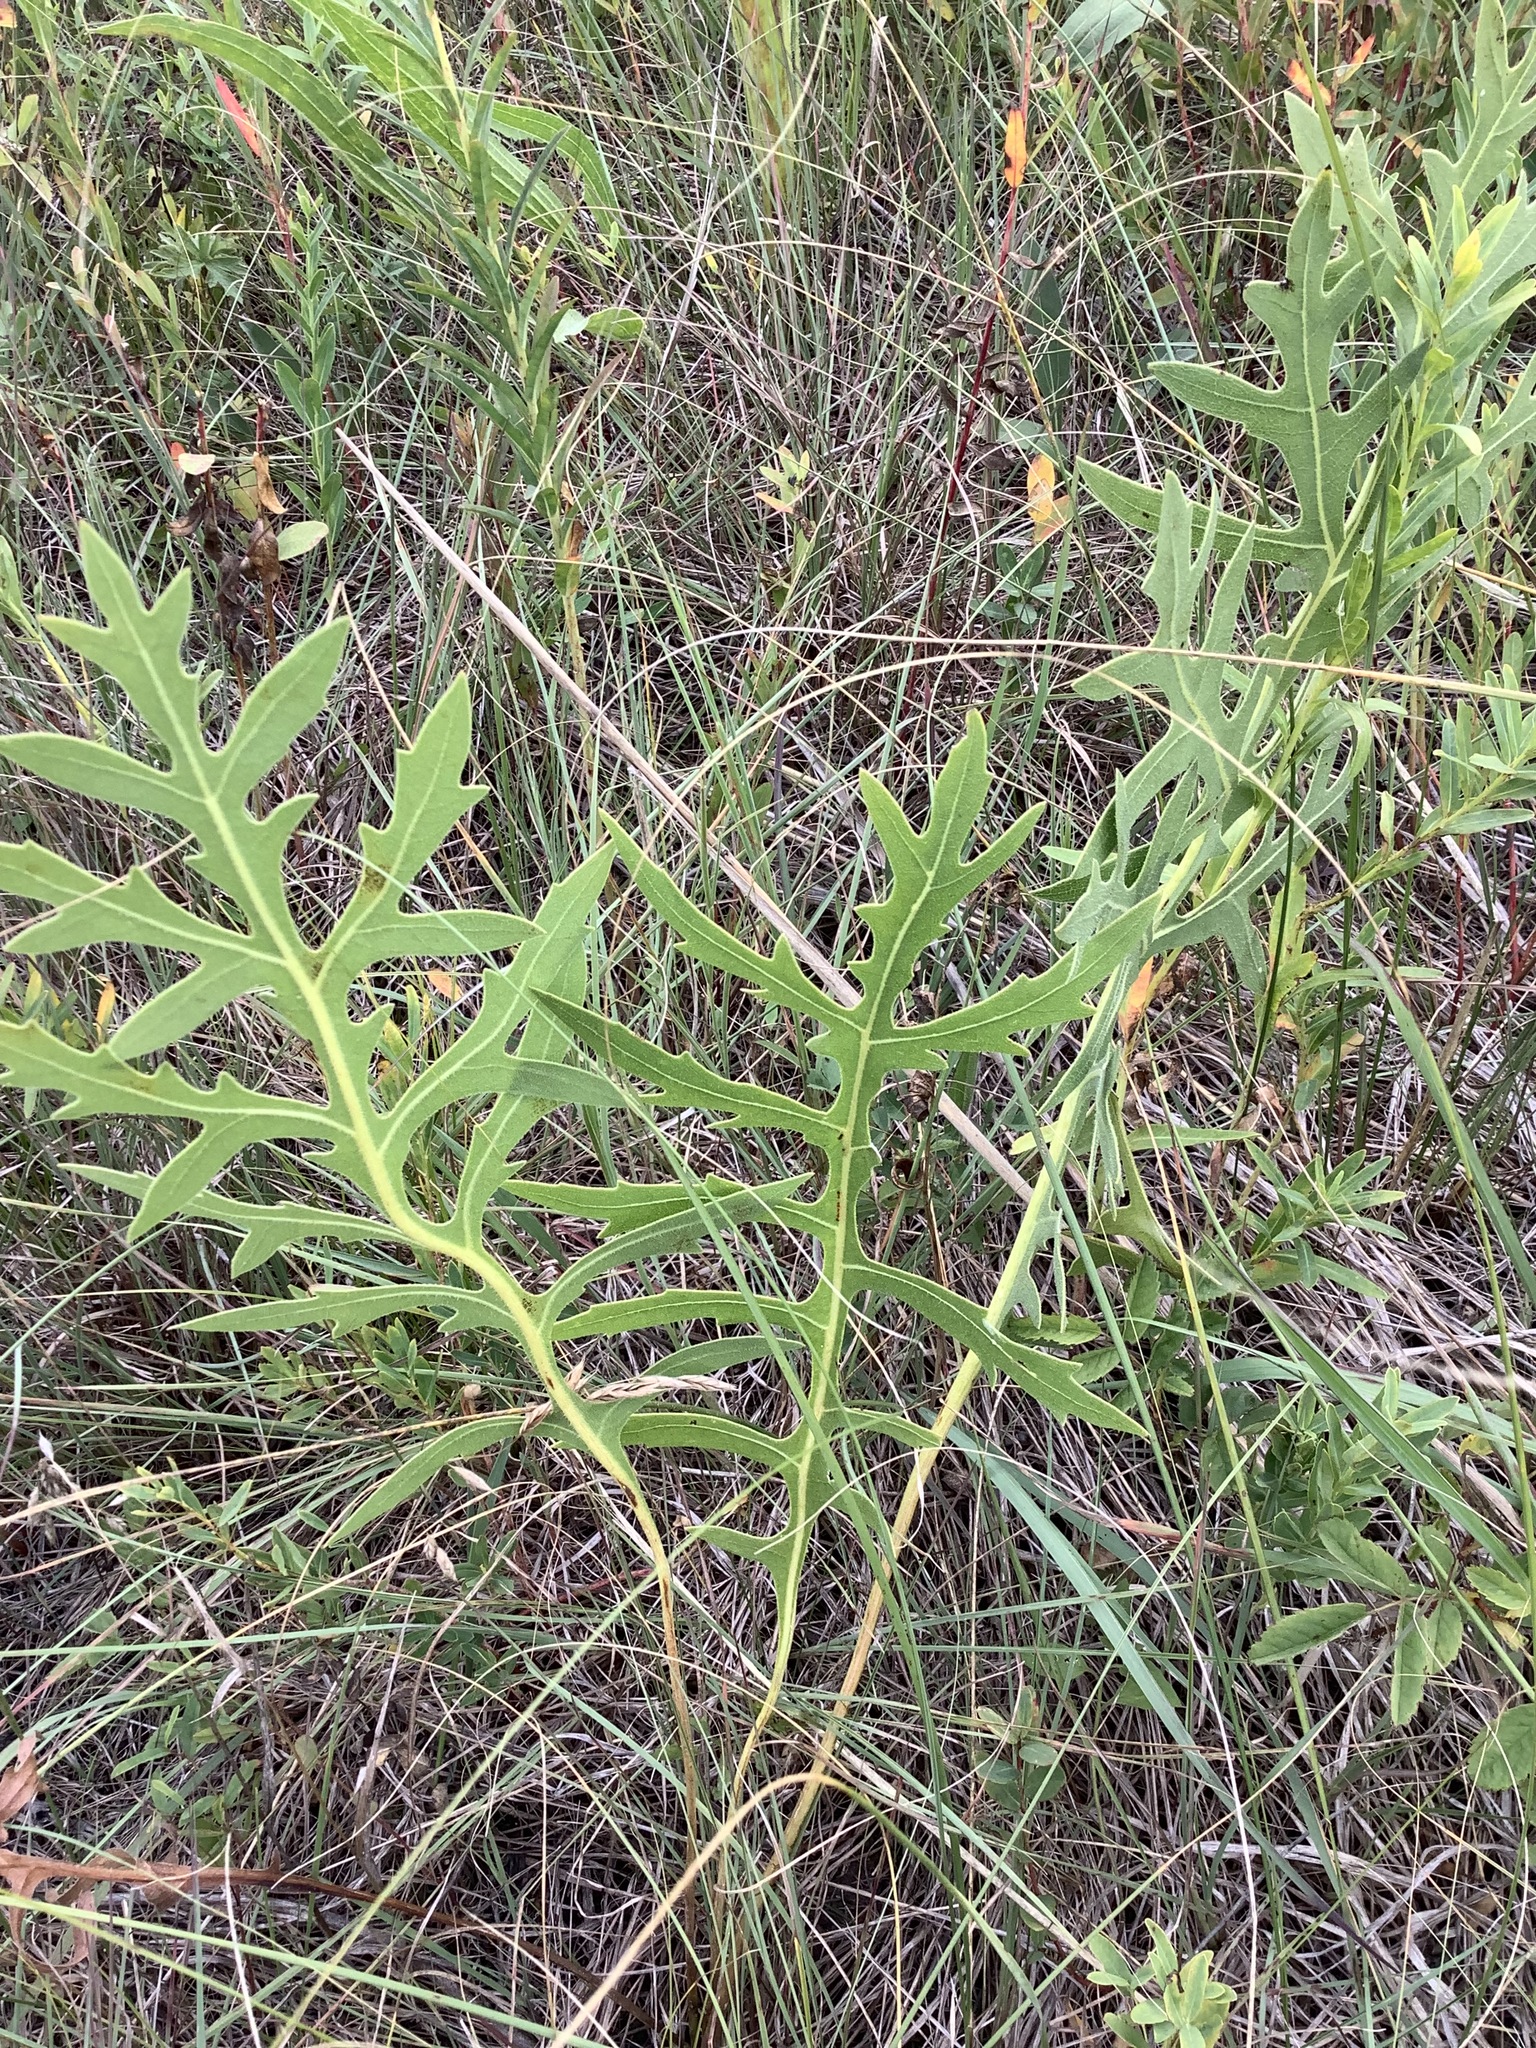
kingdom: Plantae
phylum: Tracheophyta
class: Magnoliopsida
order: Asterales
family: Asteraceae
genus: Silphium
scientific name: Silphium laciniatum
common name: Polarplant
